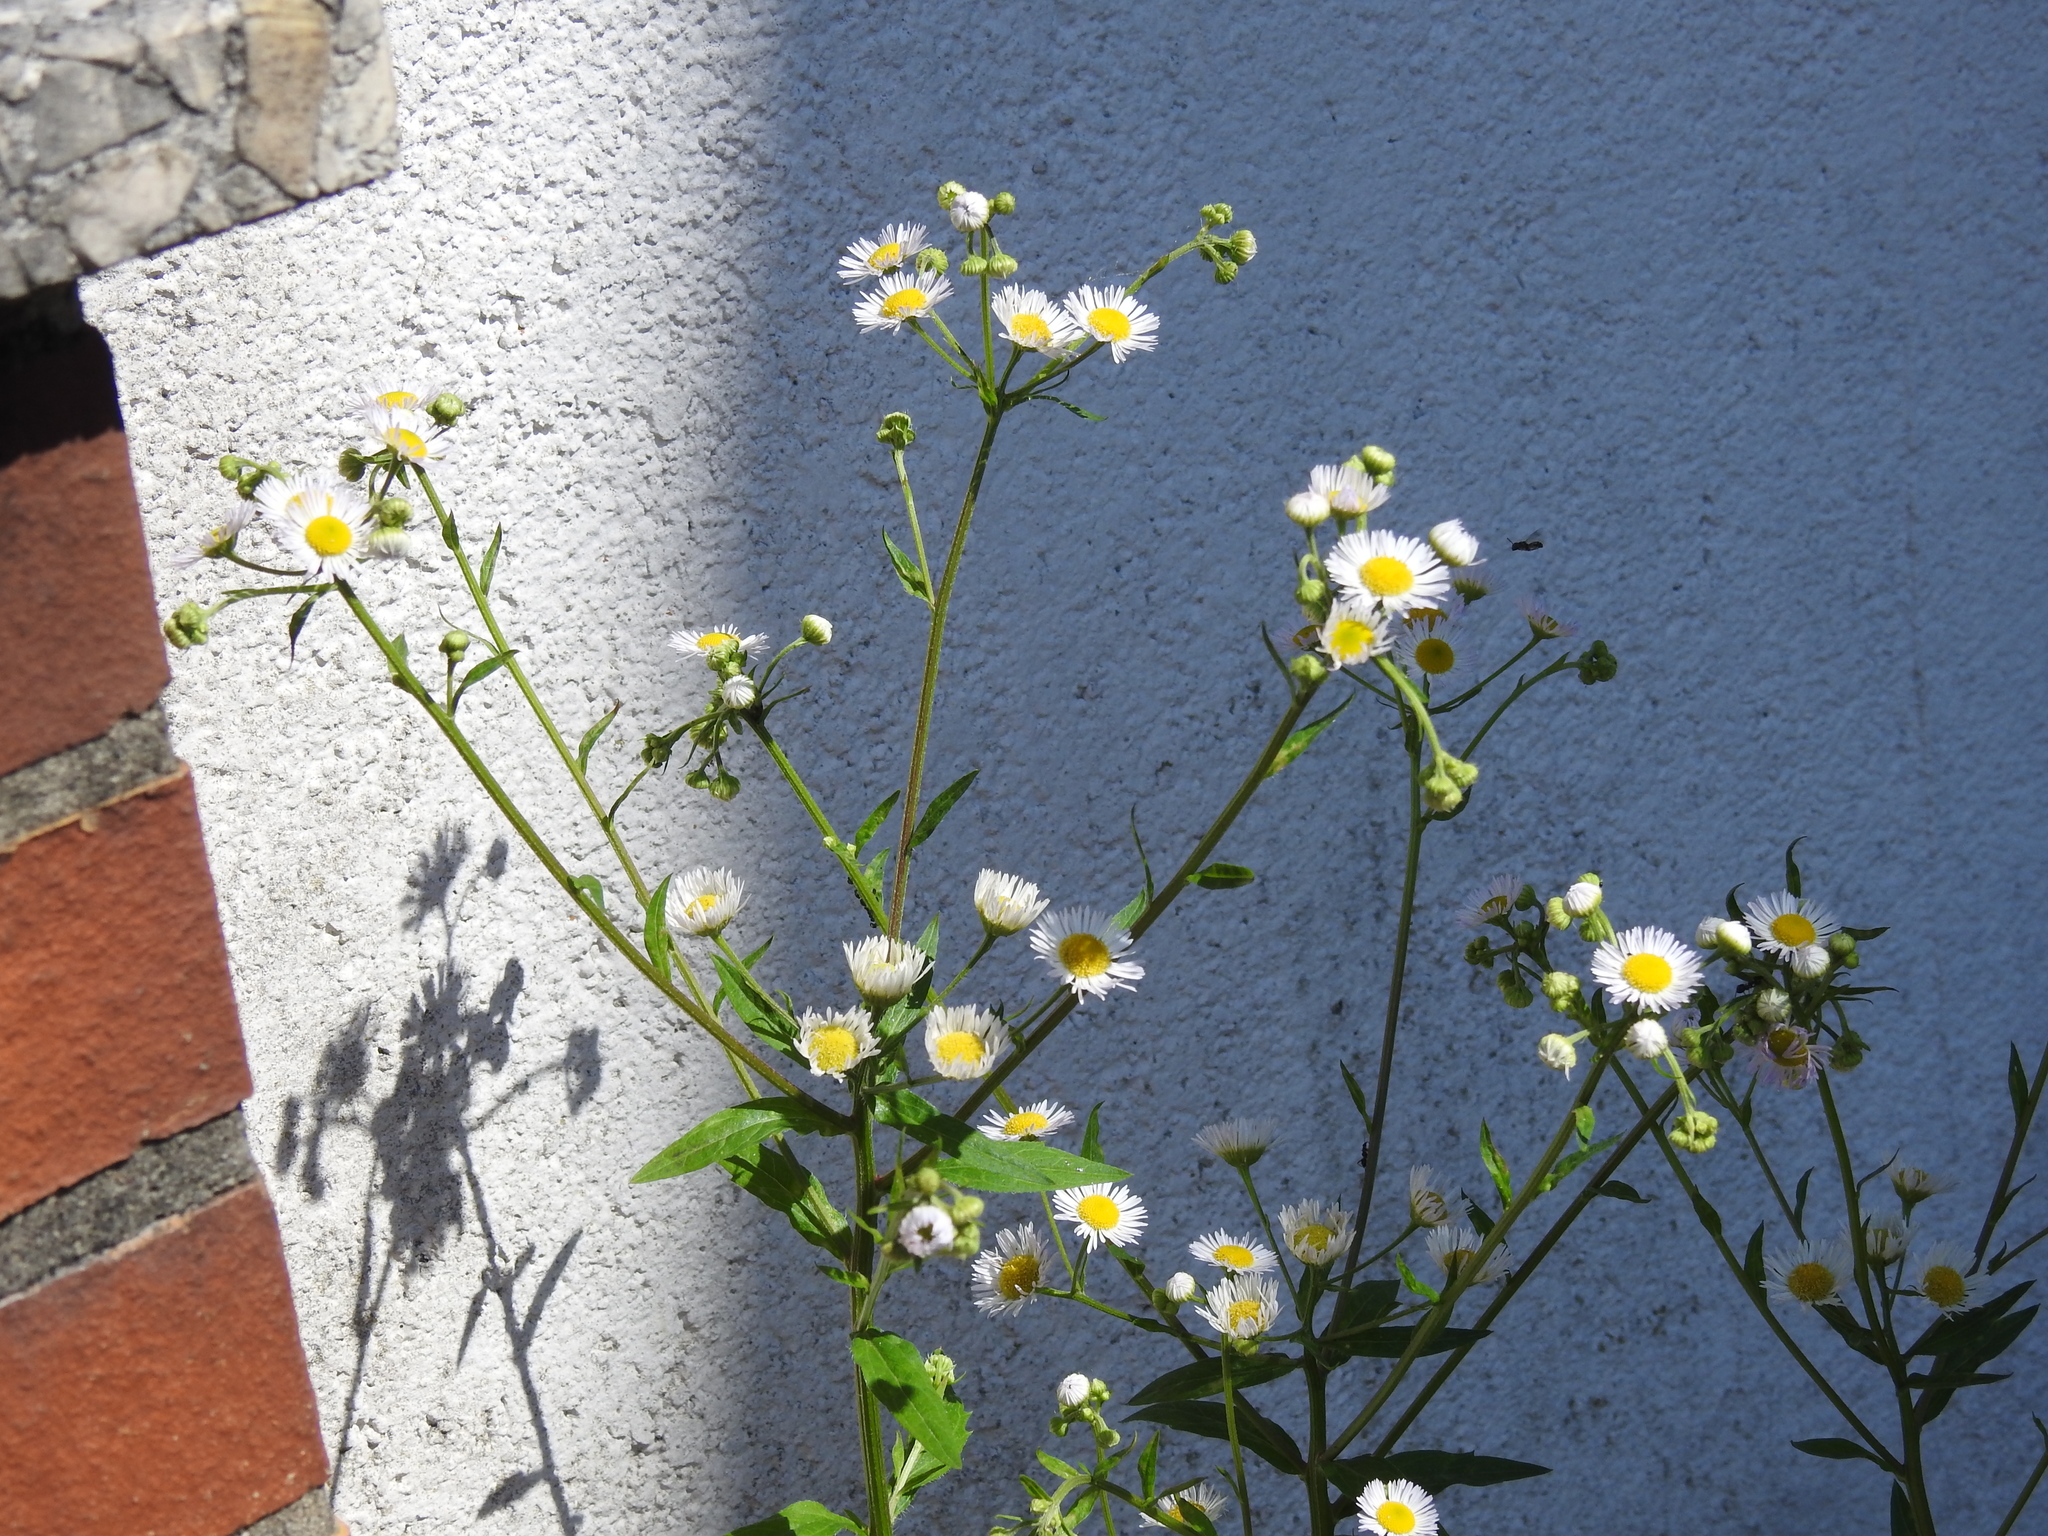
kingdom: Plantae
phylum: Tracheophyta
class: Magnoliopsida
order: Asterales
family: Asteraceae
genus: Erigeron
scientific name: Erigeron annuus
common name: Tall fleabane
